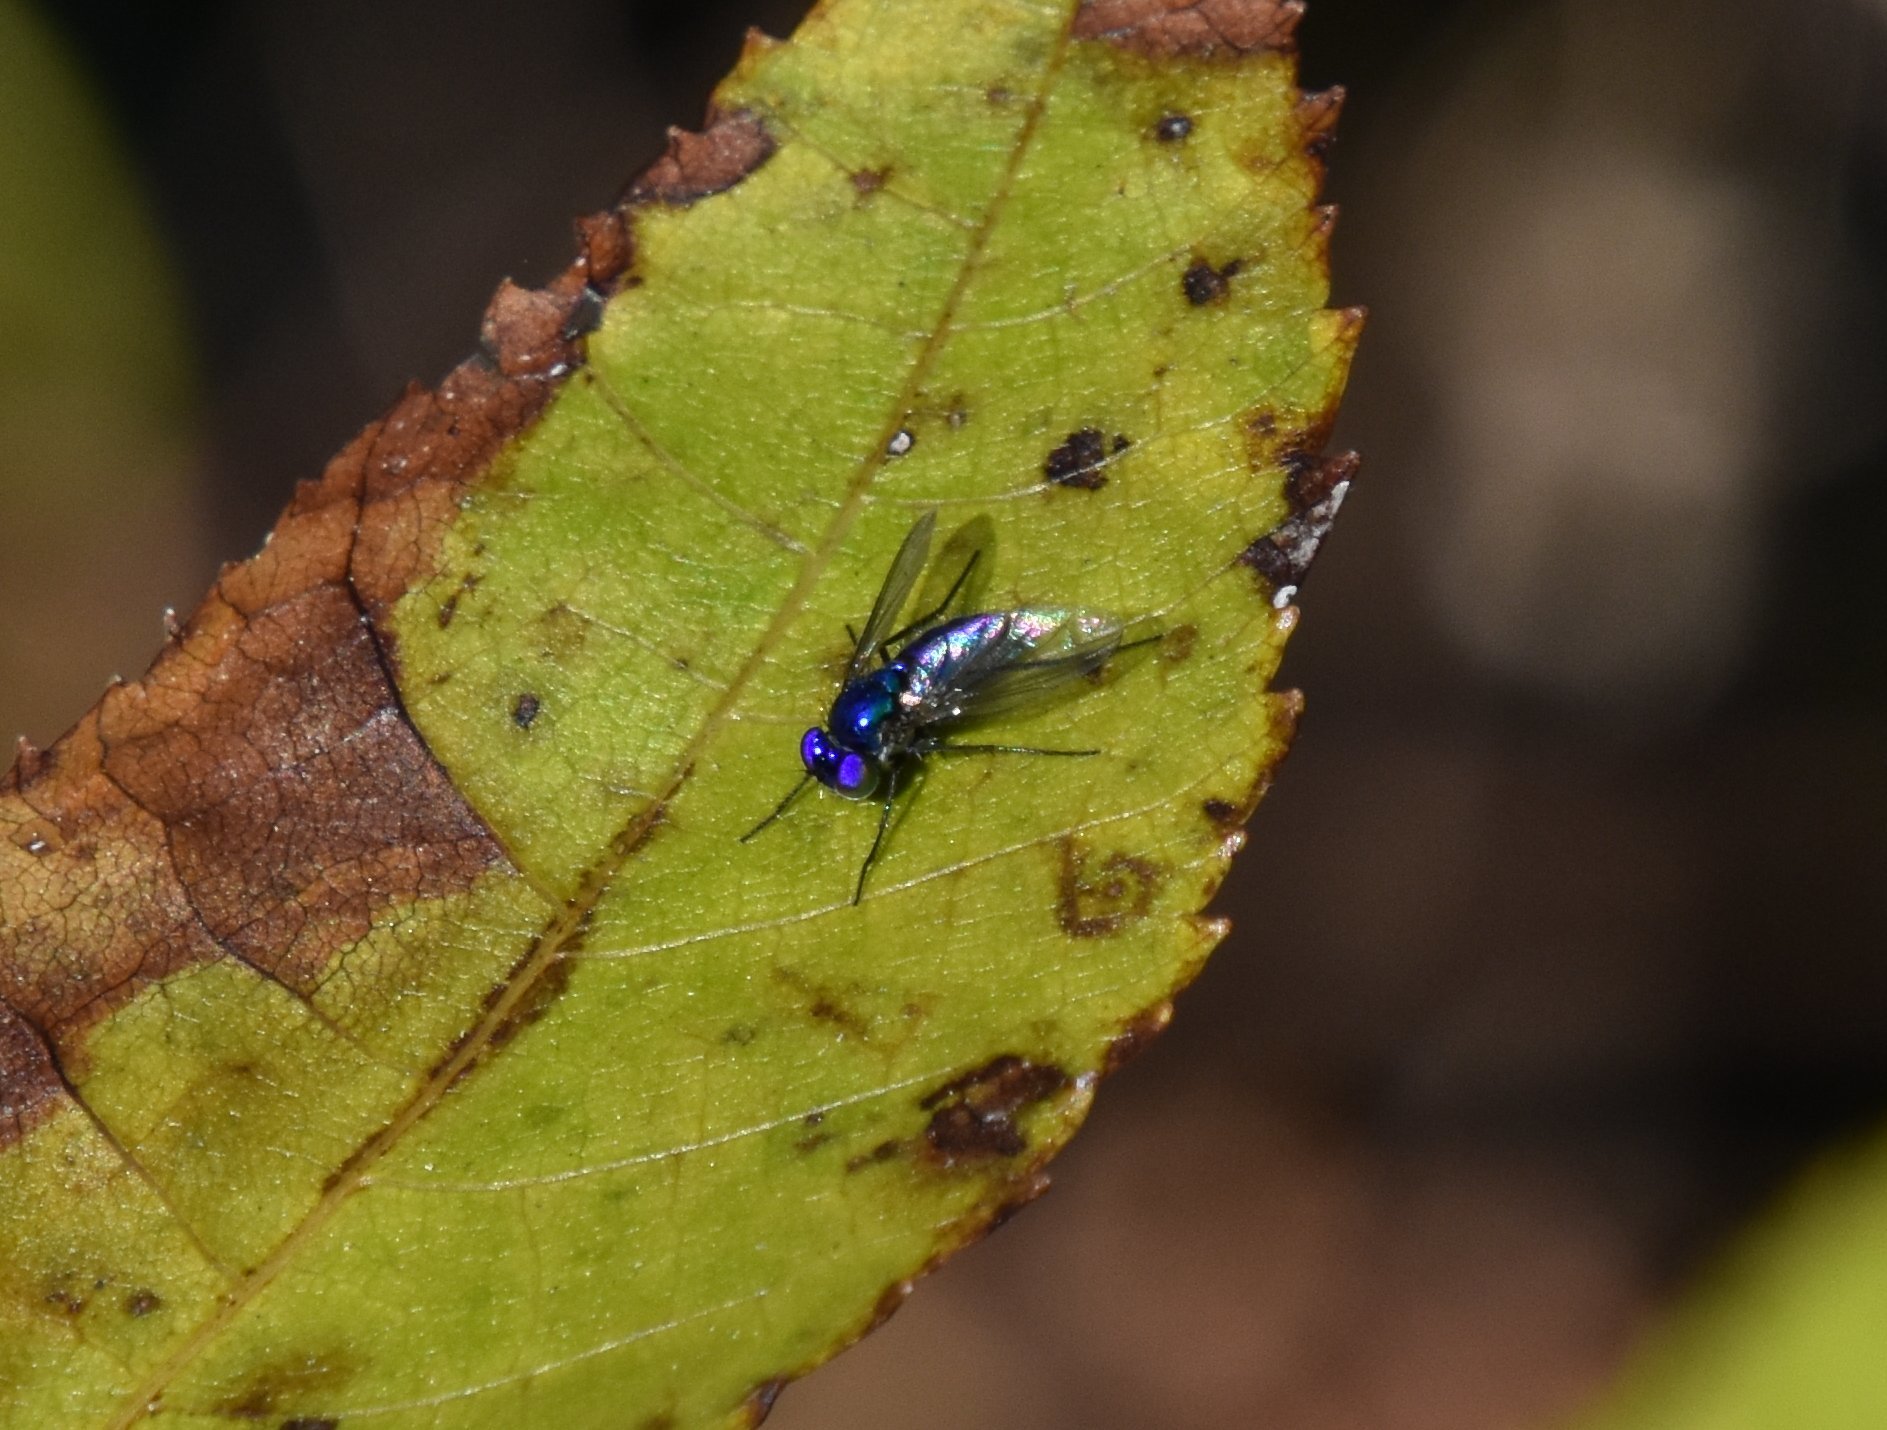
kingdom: Animalia
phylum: Arthropoda
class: Insecta
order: Diptera
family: Dolichopodidae
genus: Condylostylus
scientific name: Condylostylus mundus
